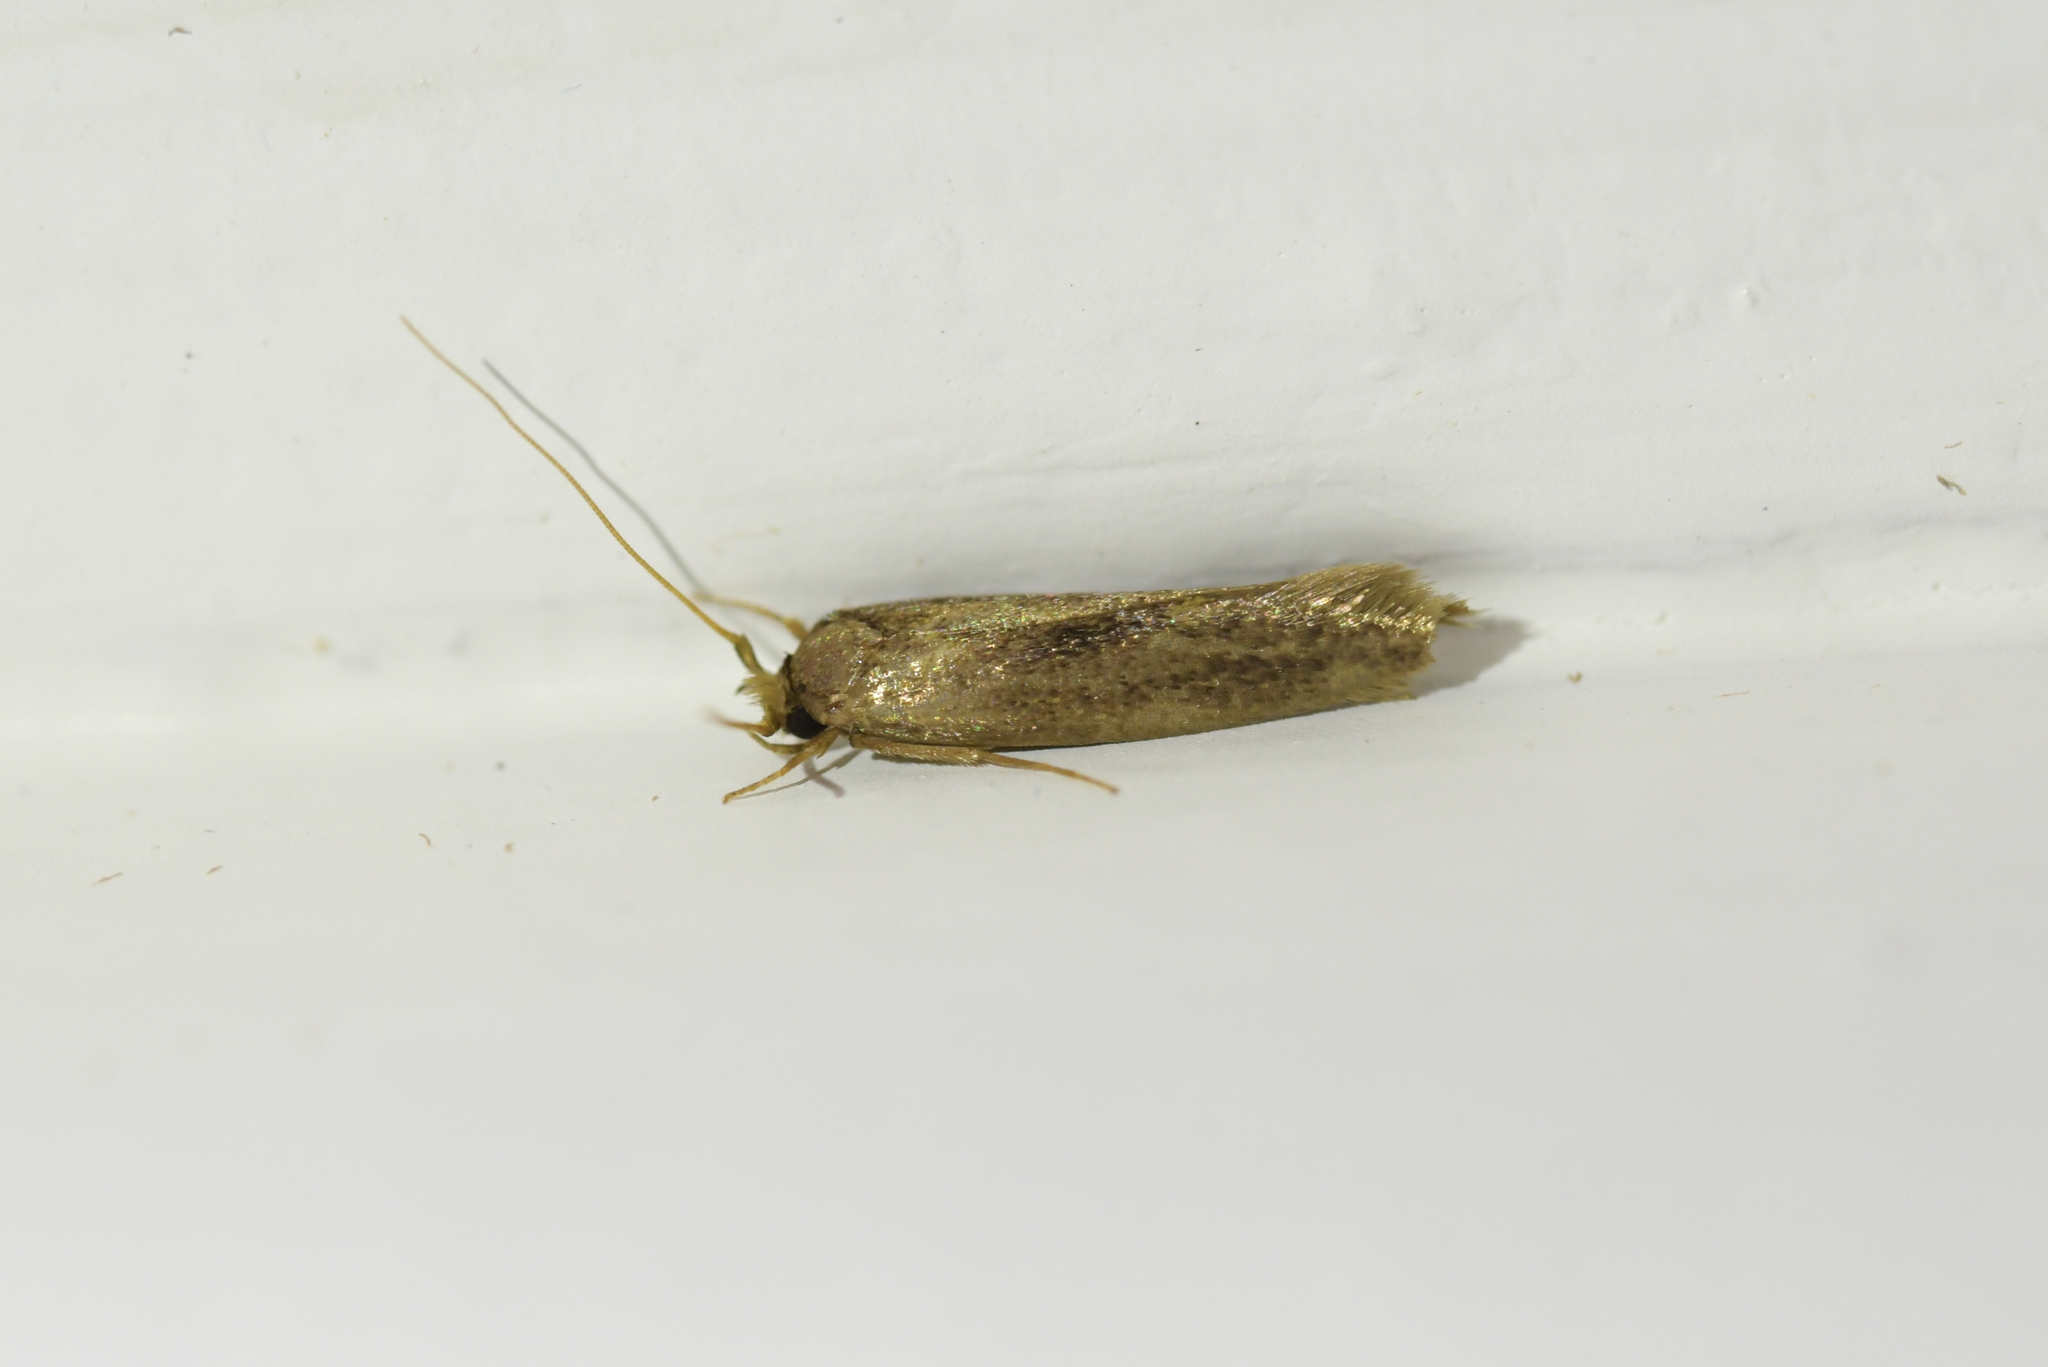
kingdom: Animalia
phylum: Arthropoda
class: Insecta
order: Lepidoptera
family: Tineidae
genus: Opogona
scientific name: Opogona omoscopa
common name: Moth
